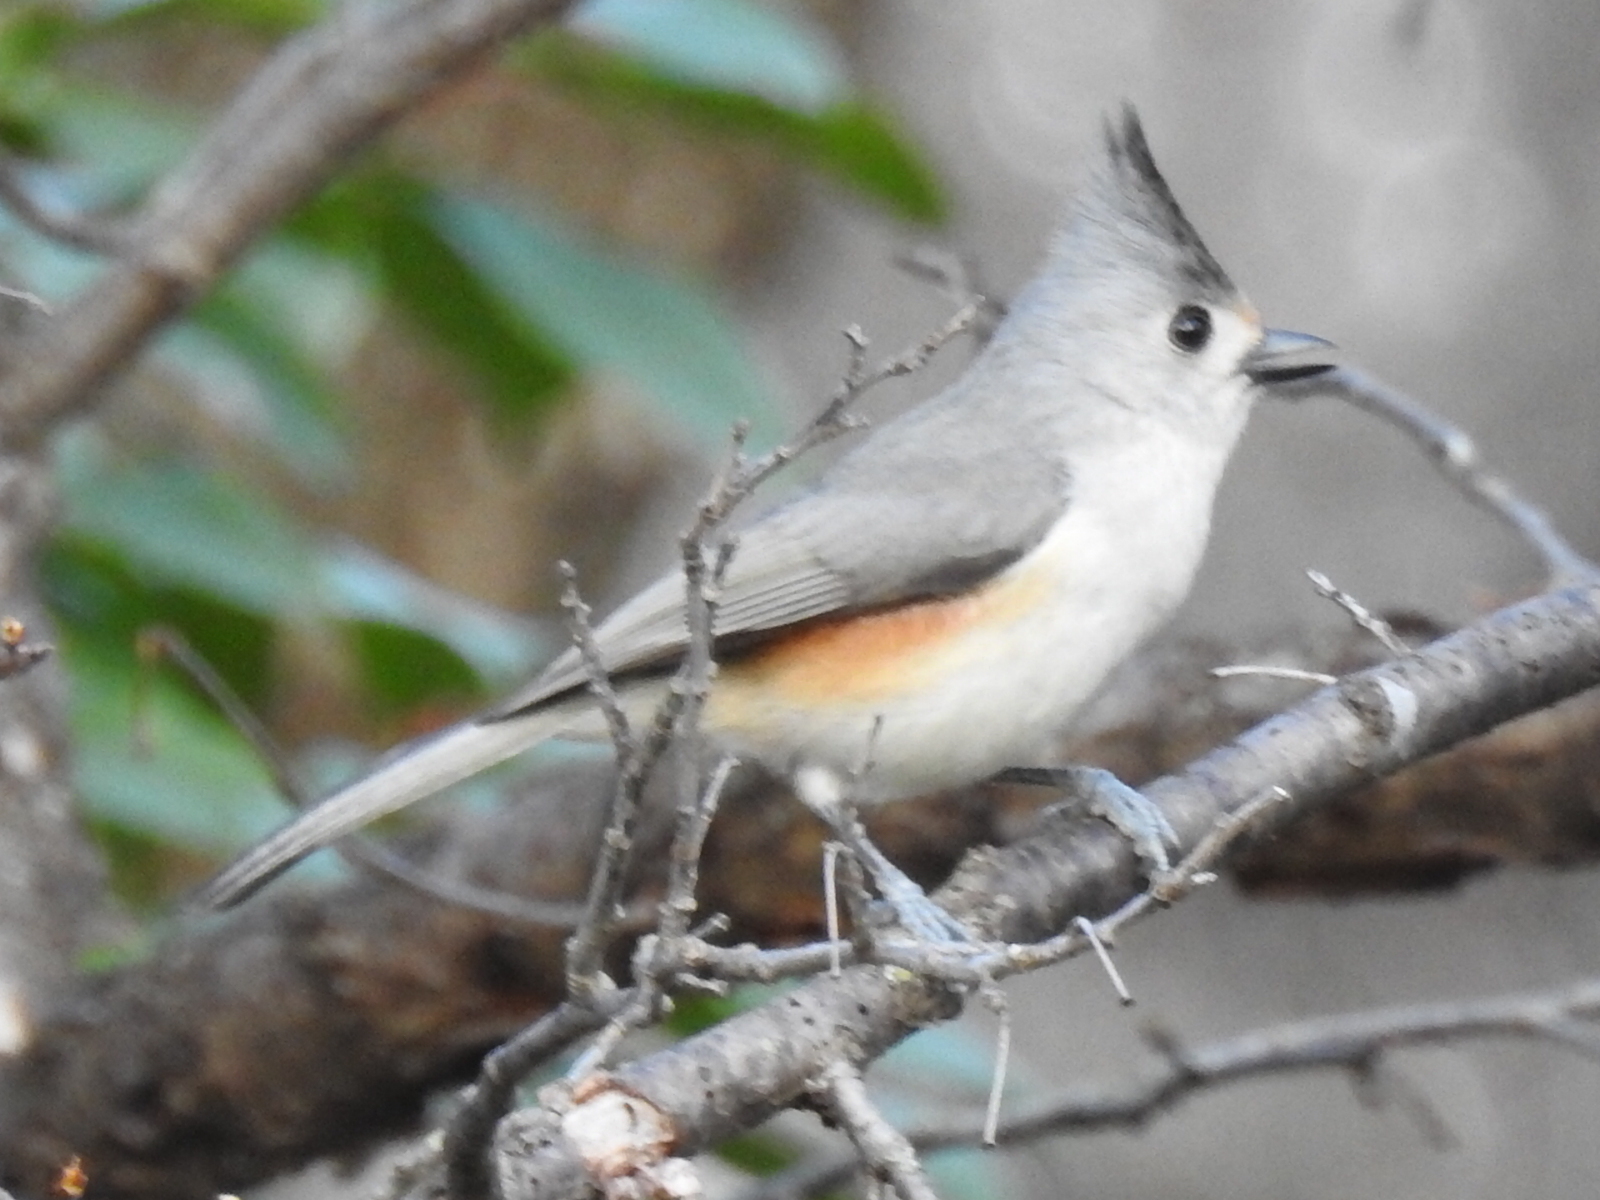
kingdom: Animalia
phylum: Chordata
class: Aves
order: Passeriformes
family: Paridae
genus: Baeolophus
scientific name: Baeolophus
